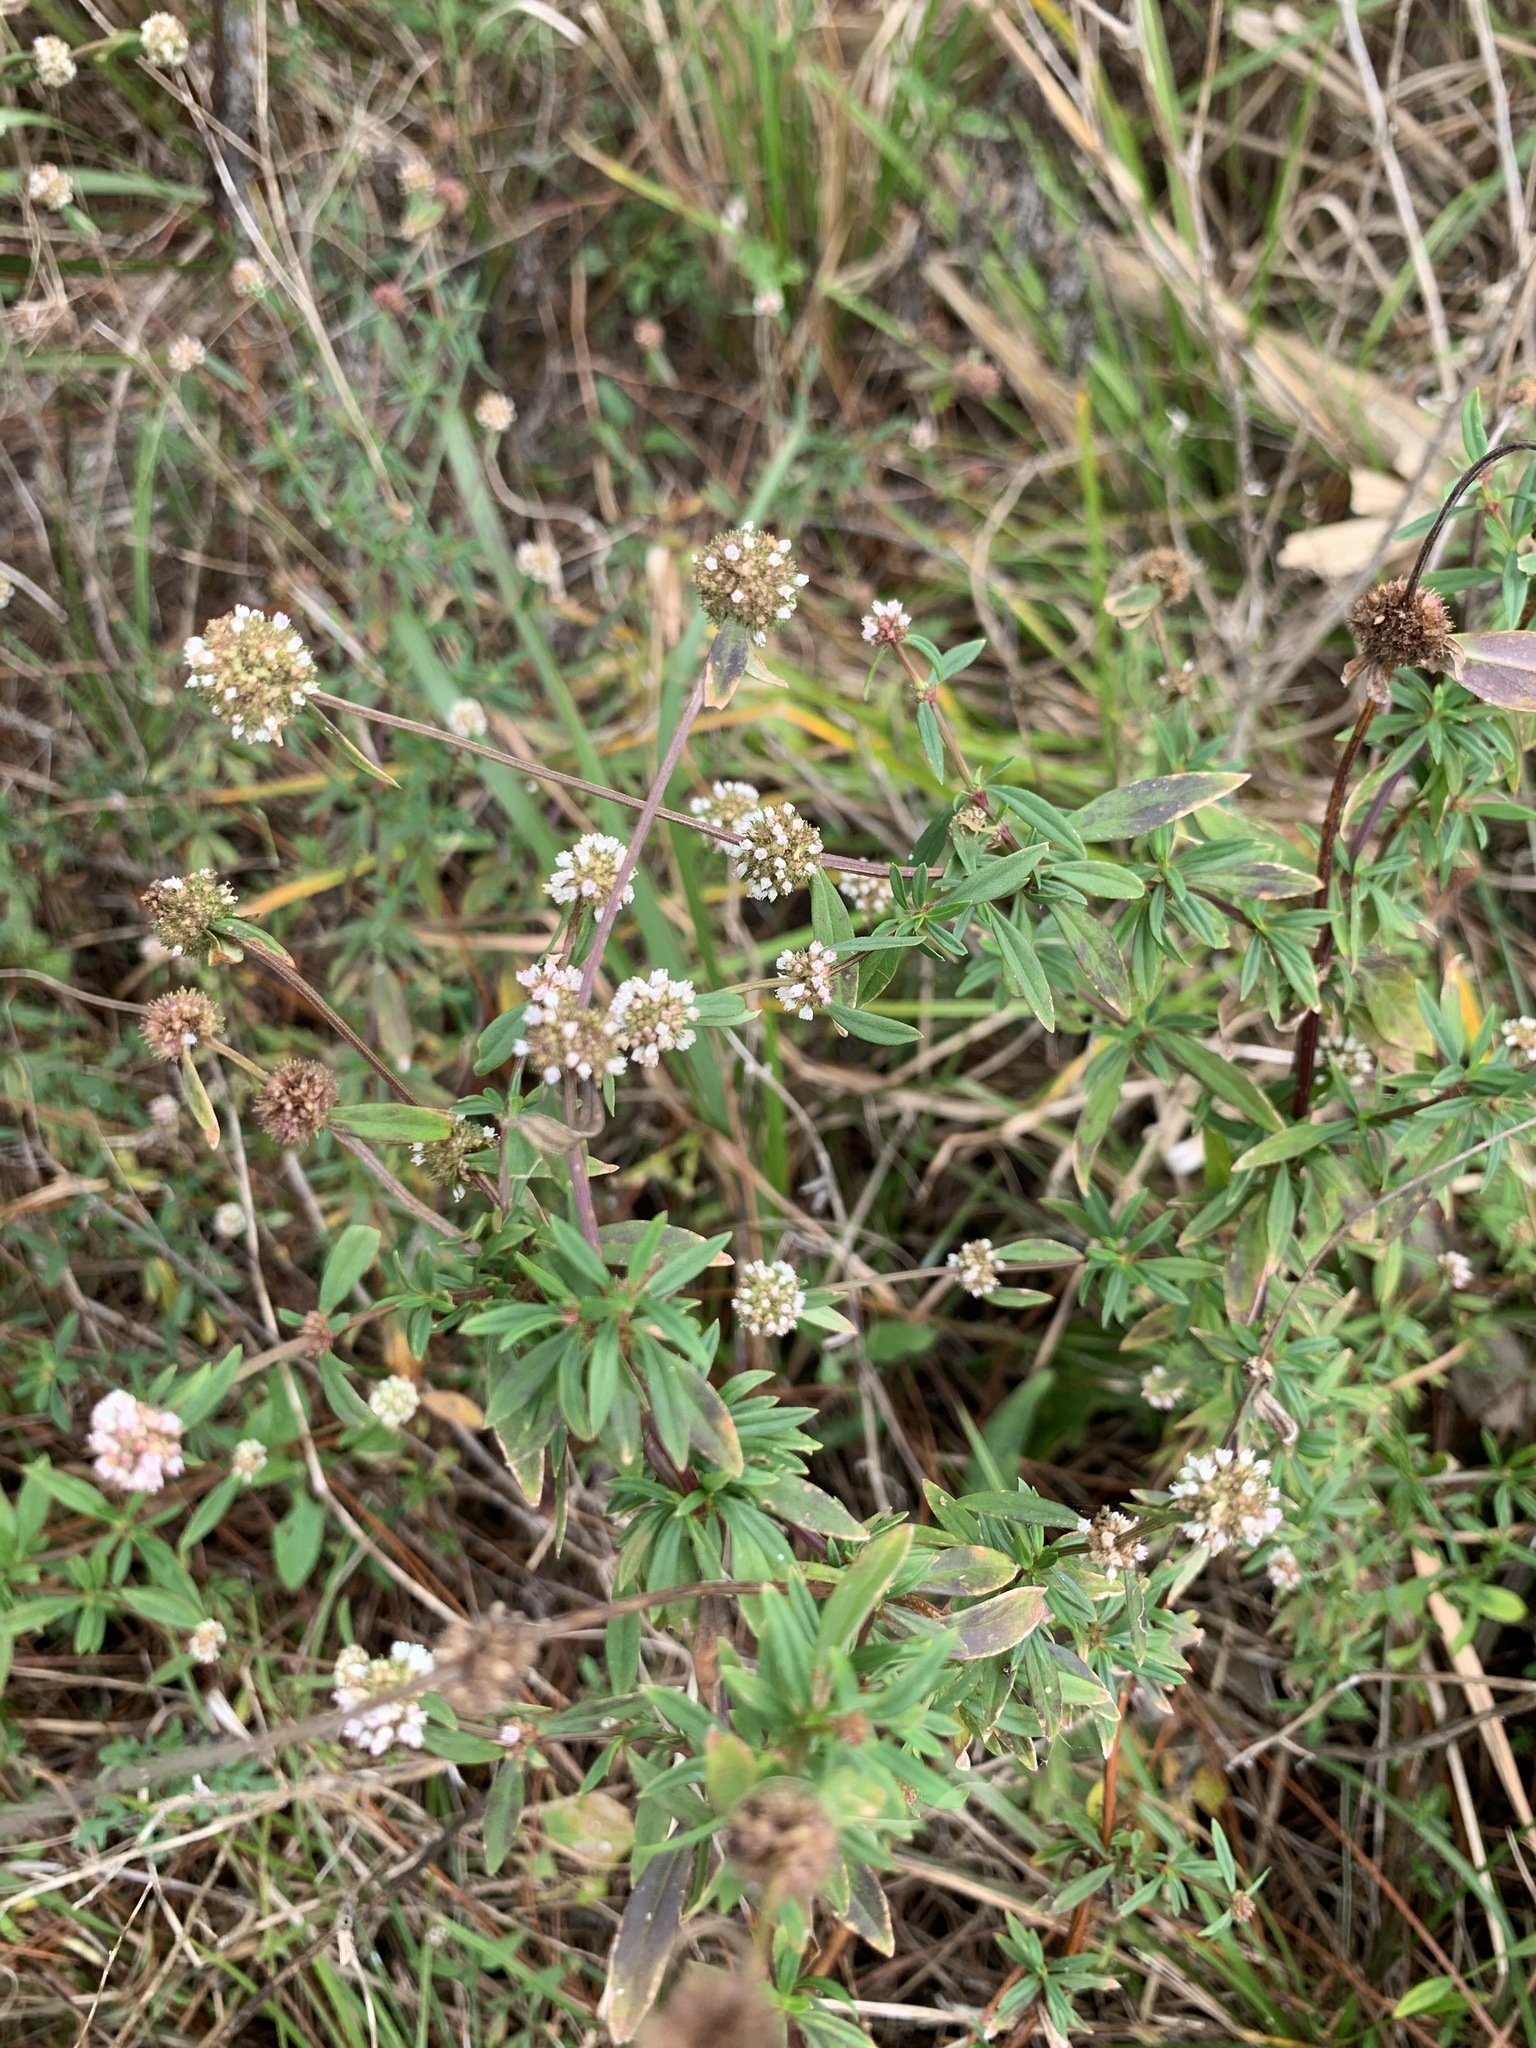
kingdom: Plantae
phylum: Tracheophyta
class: Magnoliopsida
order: Gentianales
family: Rubiaceae
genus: Spermacoce
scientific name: Spermacoce verticillata
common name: Shrubby false buttonweed
